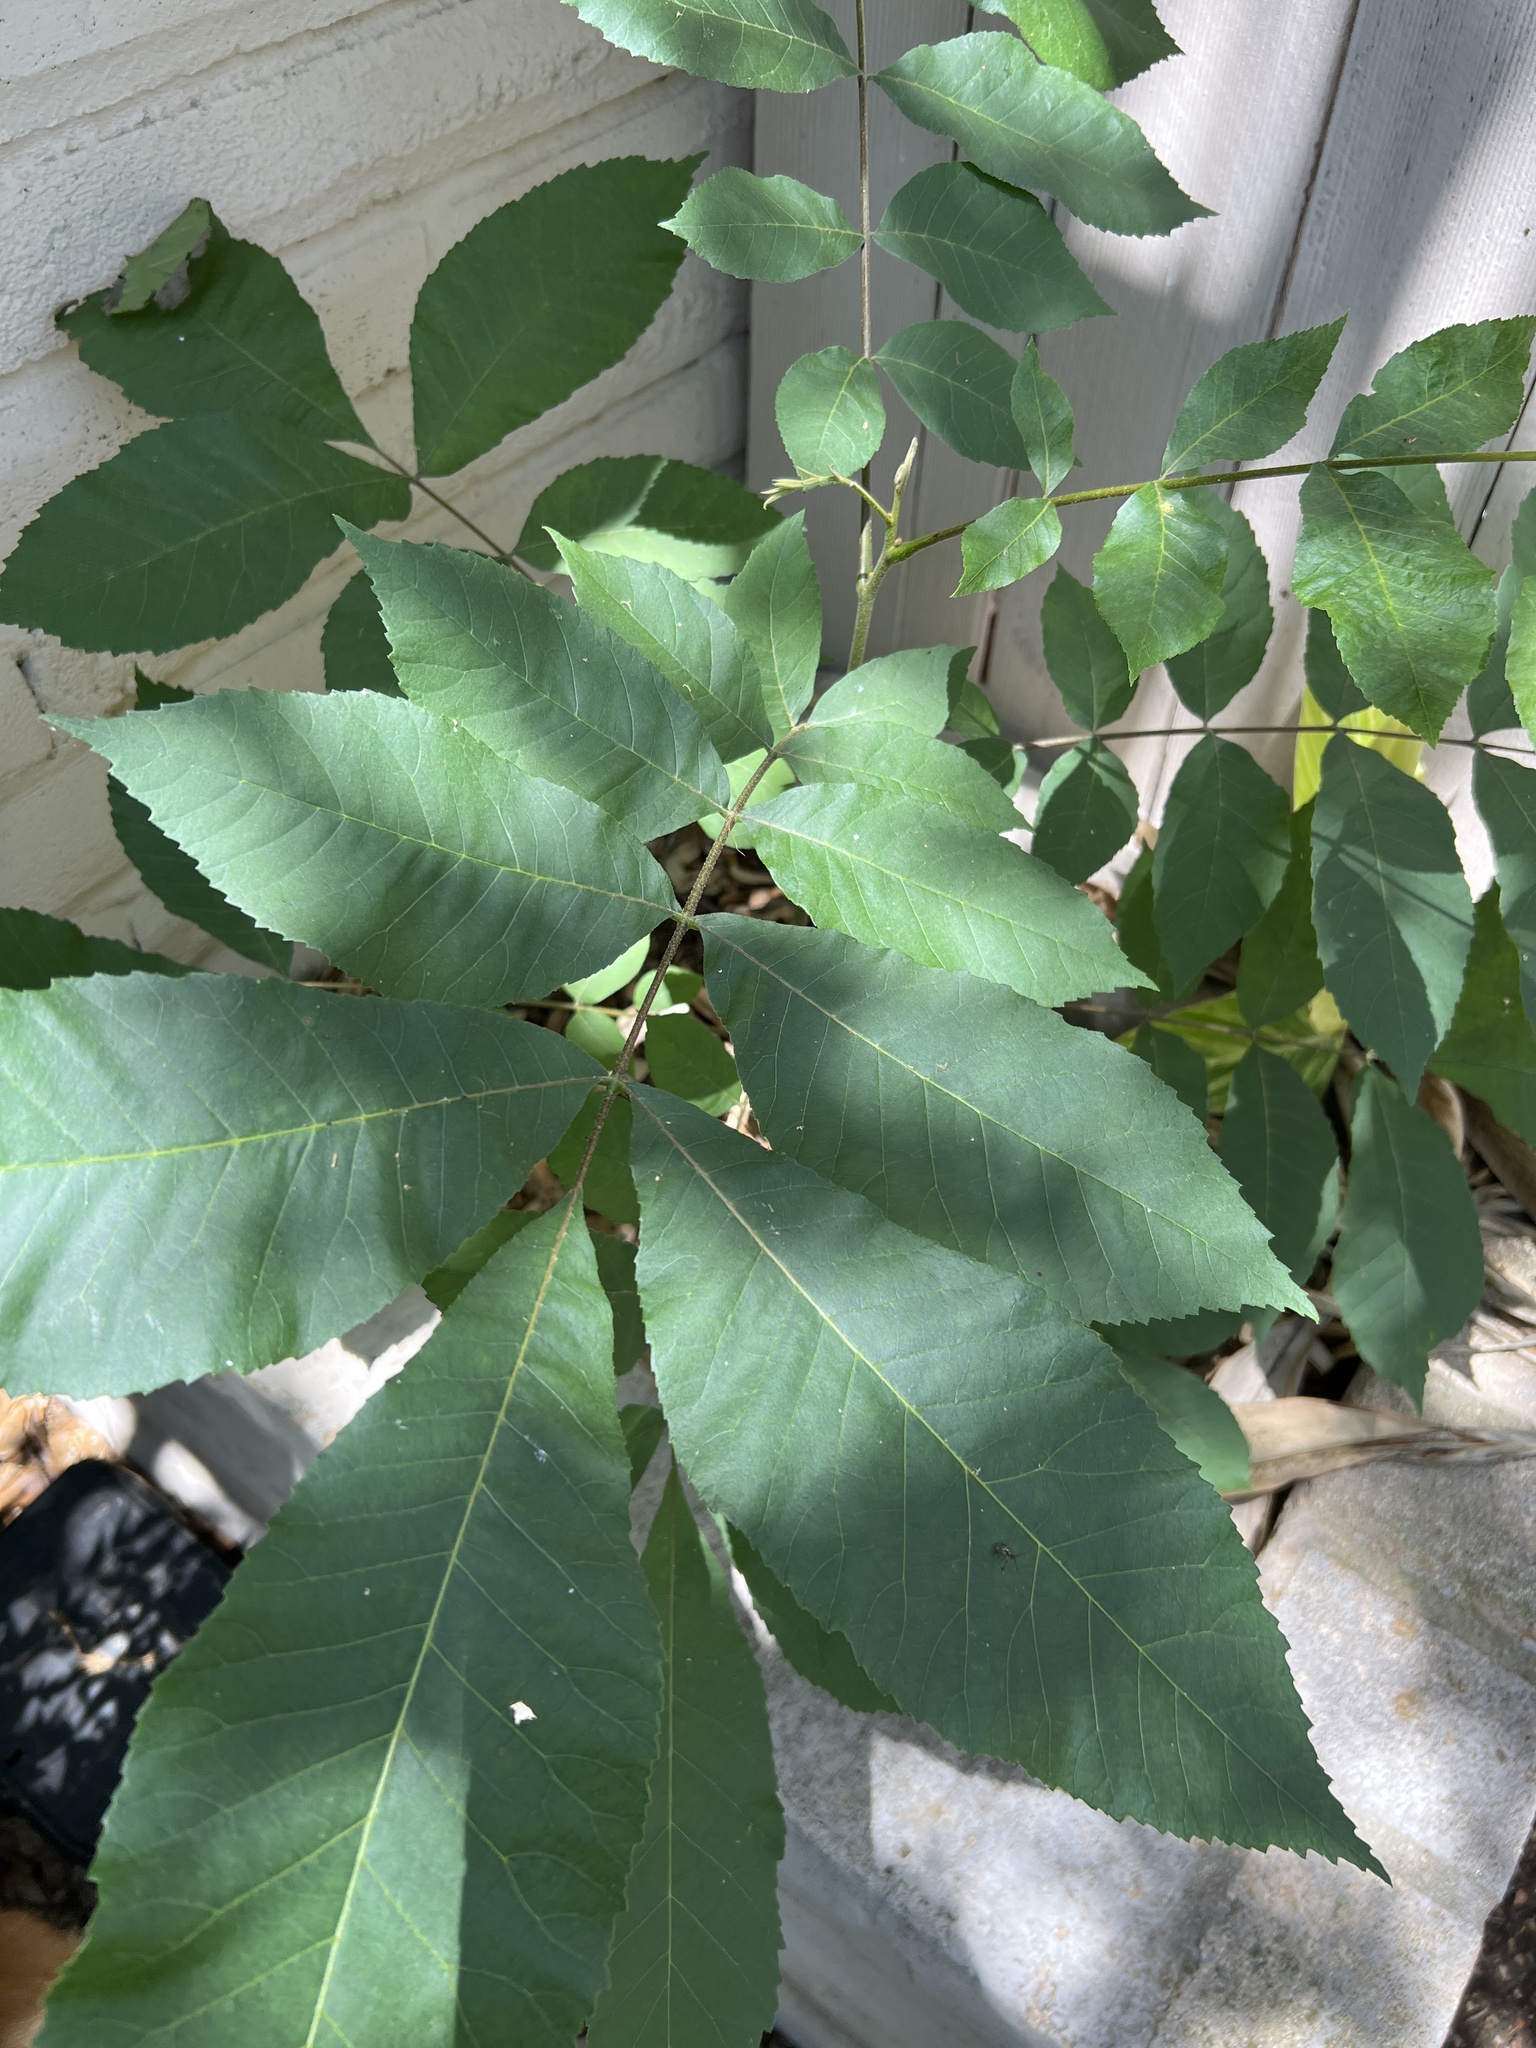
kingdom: Plantae
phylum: Tracheophyta
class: Magnoliopsida
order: Fagales
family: Juglandaceae
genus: Carya
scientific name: Carya illinoinensis
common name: Pecan
